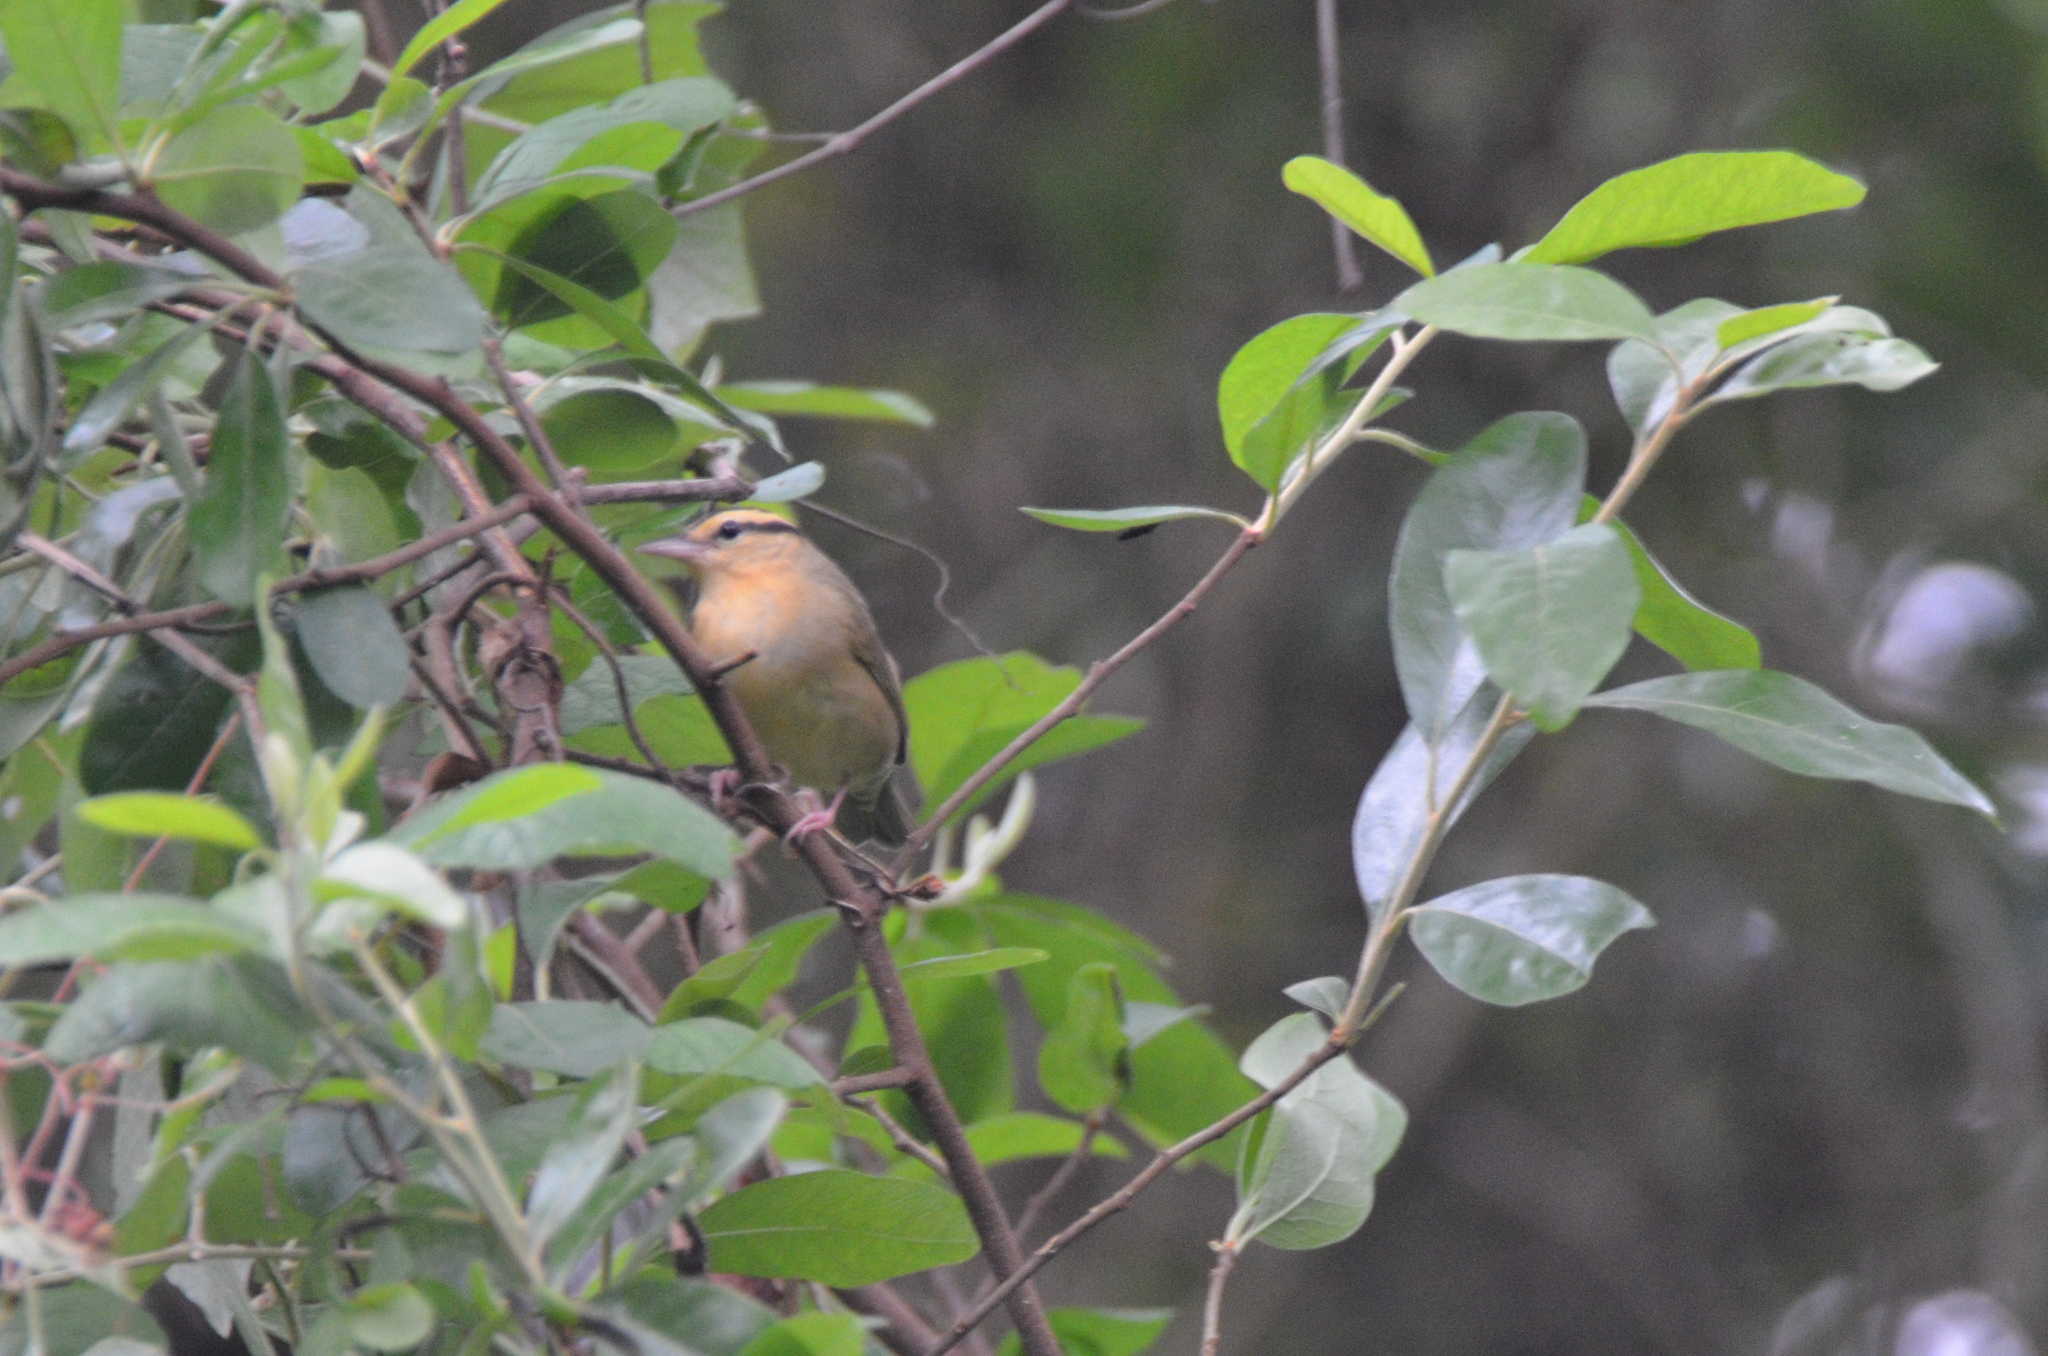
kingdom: Animalia
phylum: Chordata
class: Aves
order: Passeriformes
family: Parulidae
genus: Helmitheros
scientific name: Helmitheros vermivorum
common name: Worm-eating warbler
